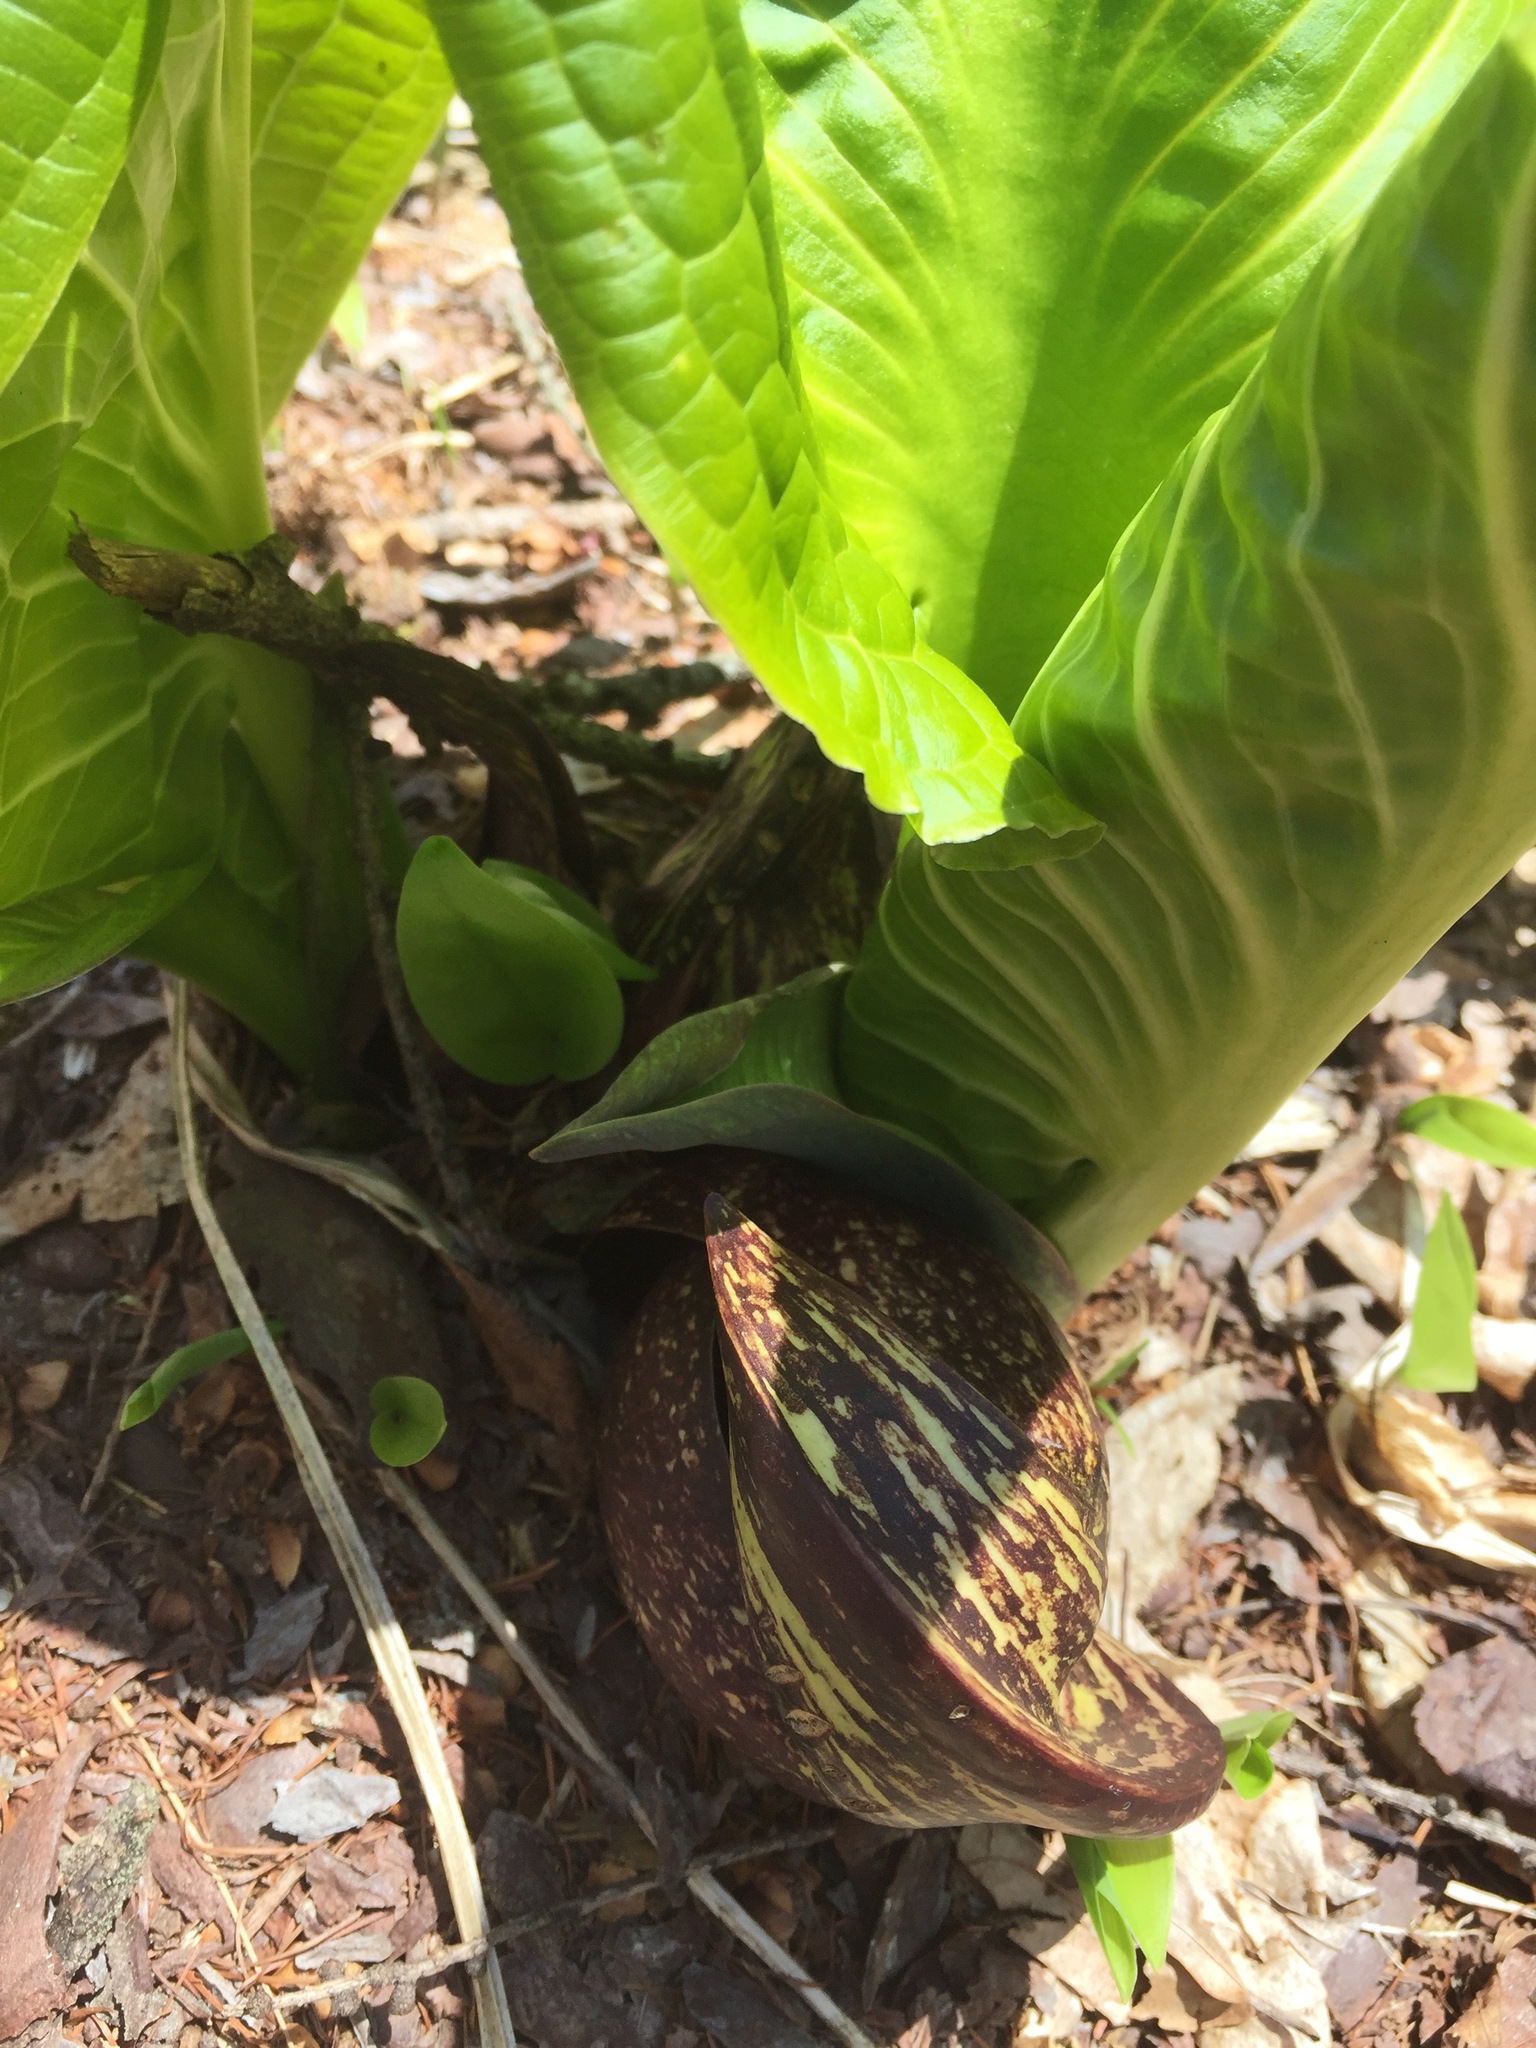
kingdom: Plantae
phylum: Tracheophyta
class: Liliopsida
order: Alismatales
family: Araceae
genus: Symplocarpus
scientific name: Symplocarpus foetidus
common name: Eastern skunk cabbage
